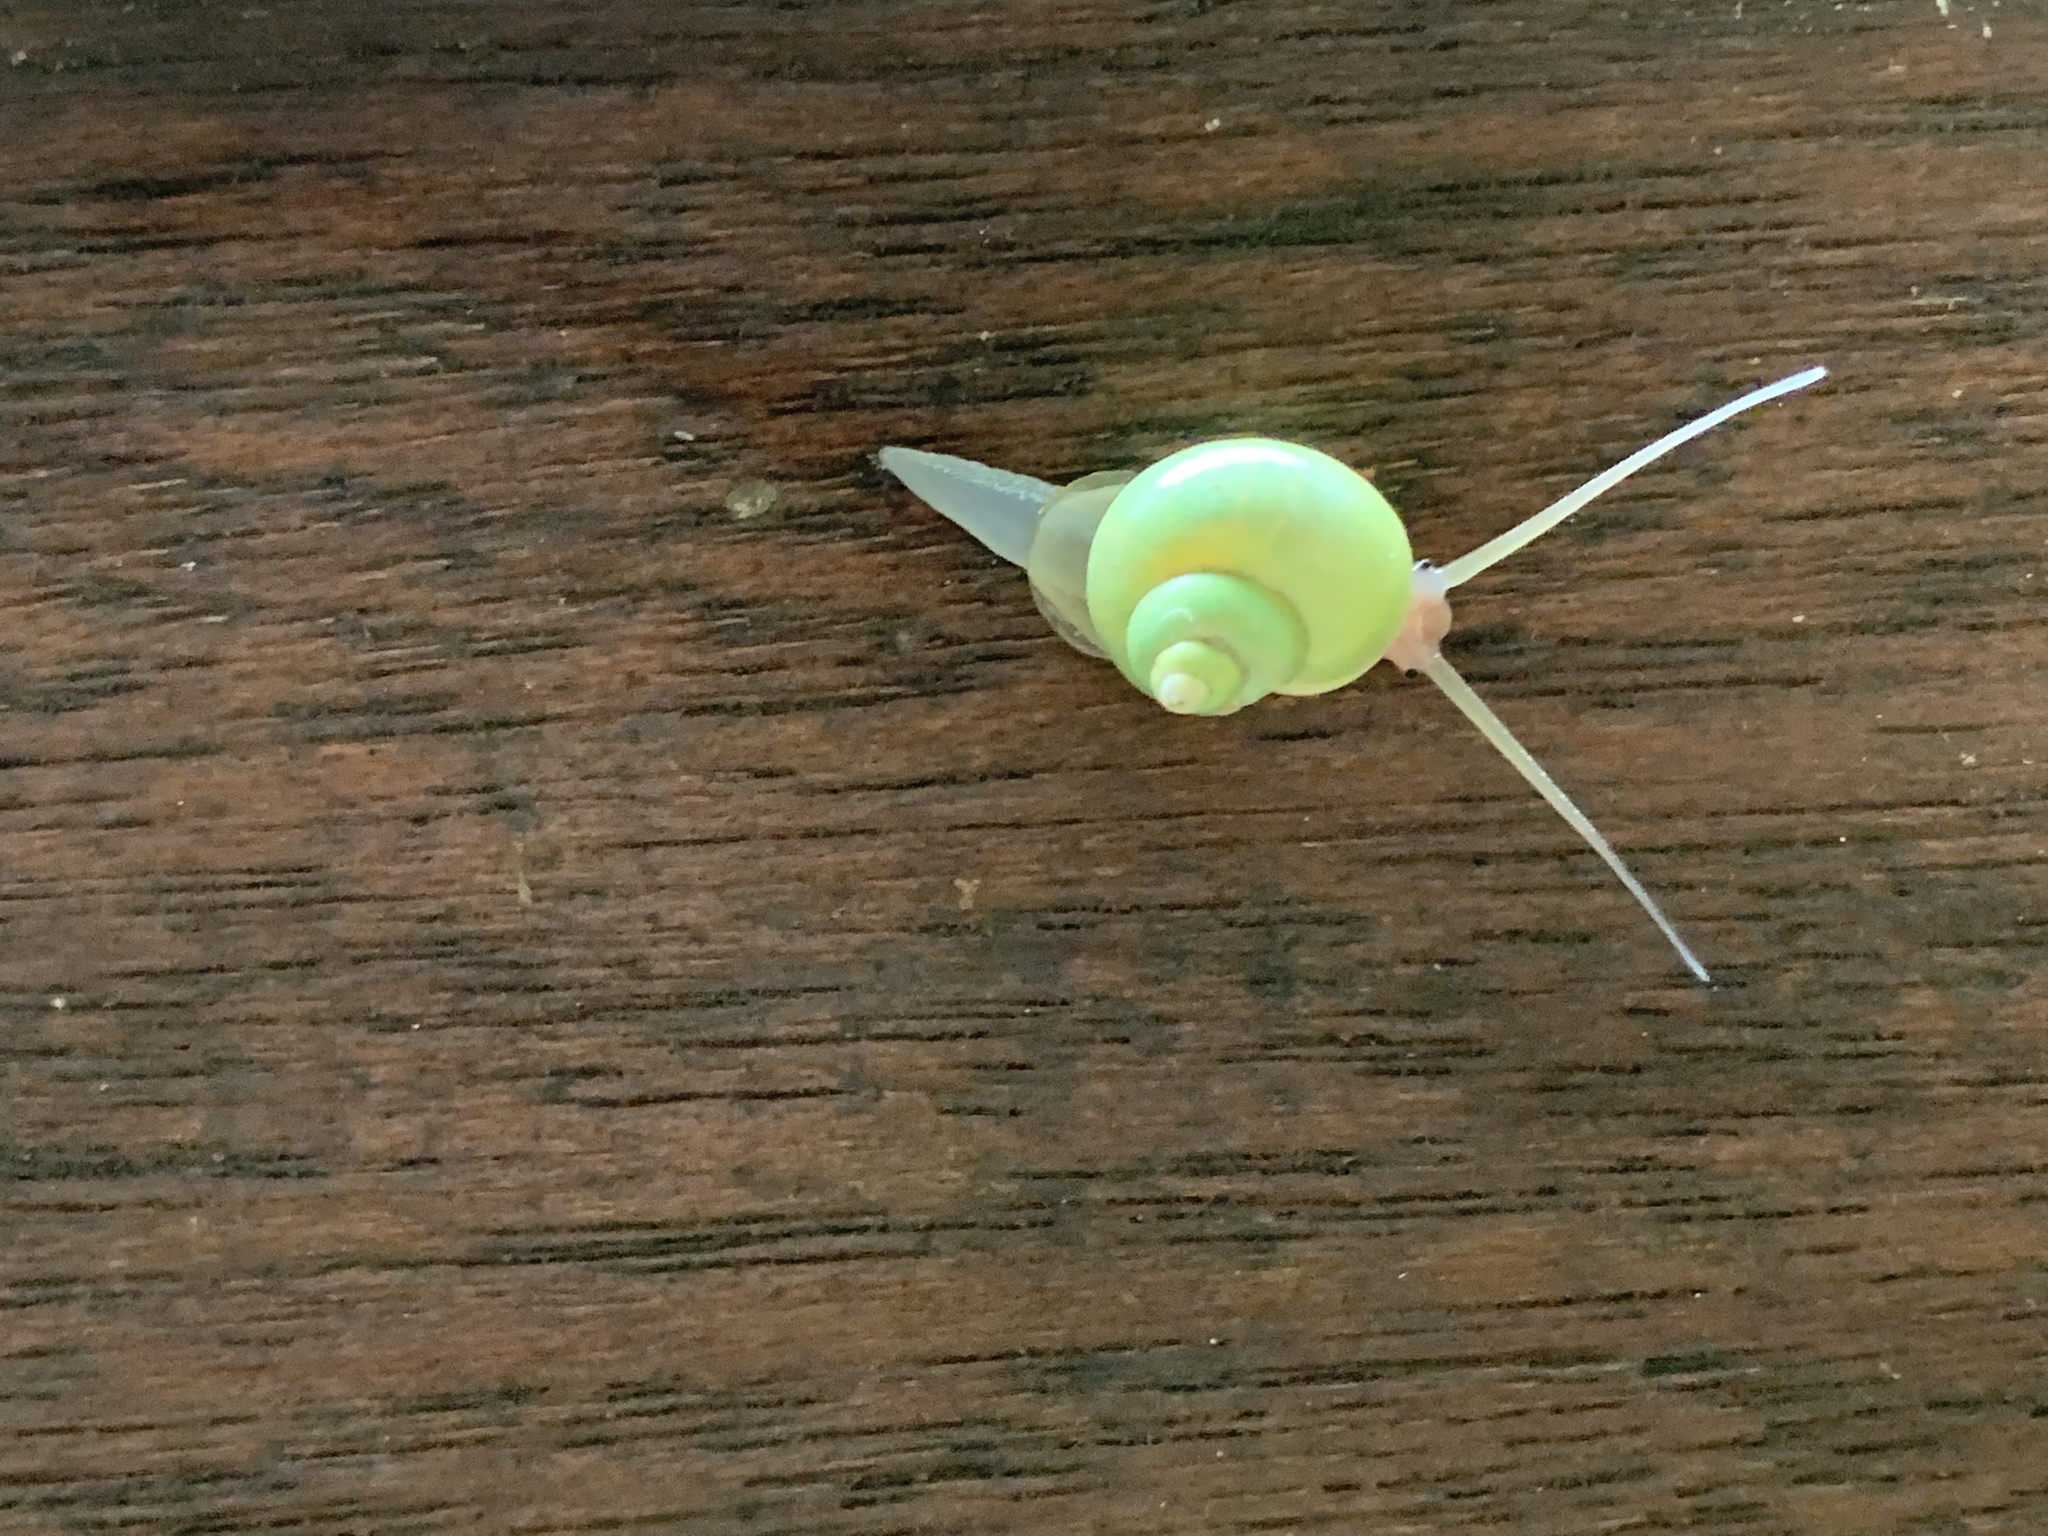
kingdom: Animalia
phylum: Mollusca
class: Gastropoda
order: Architaenioglossa
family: Cyclophoridae
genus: Leptopoma
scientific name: Leptopoma nitidum
